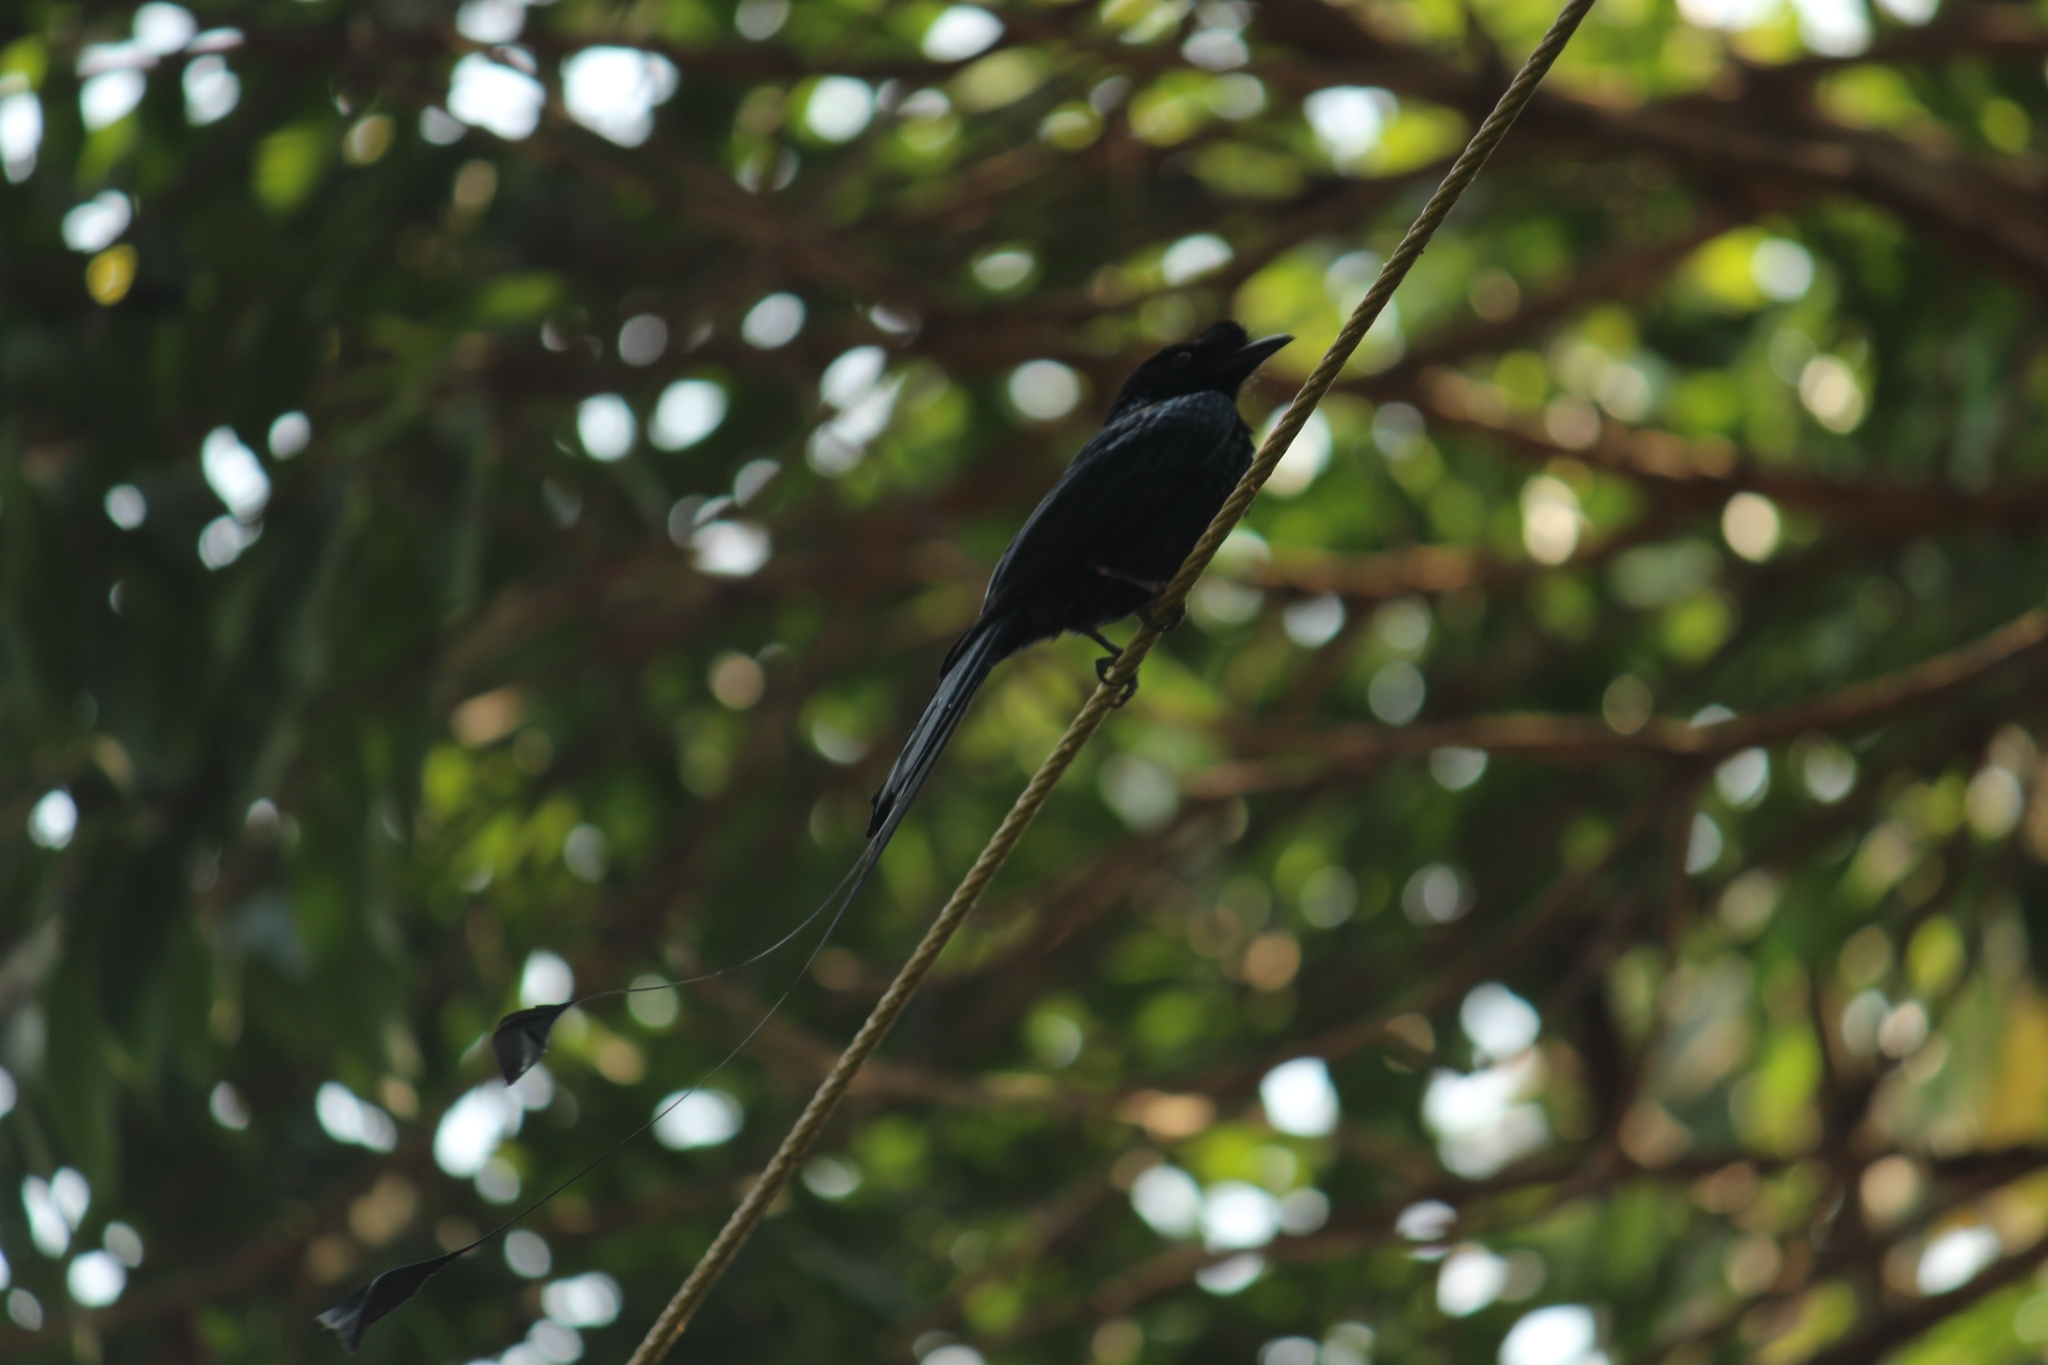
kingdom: Animalia
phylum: Chordata
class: Aves
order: Passeriformes
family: Dicruridae
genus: Dicrurus
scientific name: Dicrurus paradiseus
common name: Greater racket-tailed drongo
